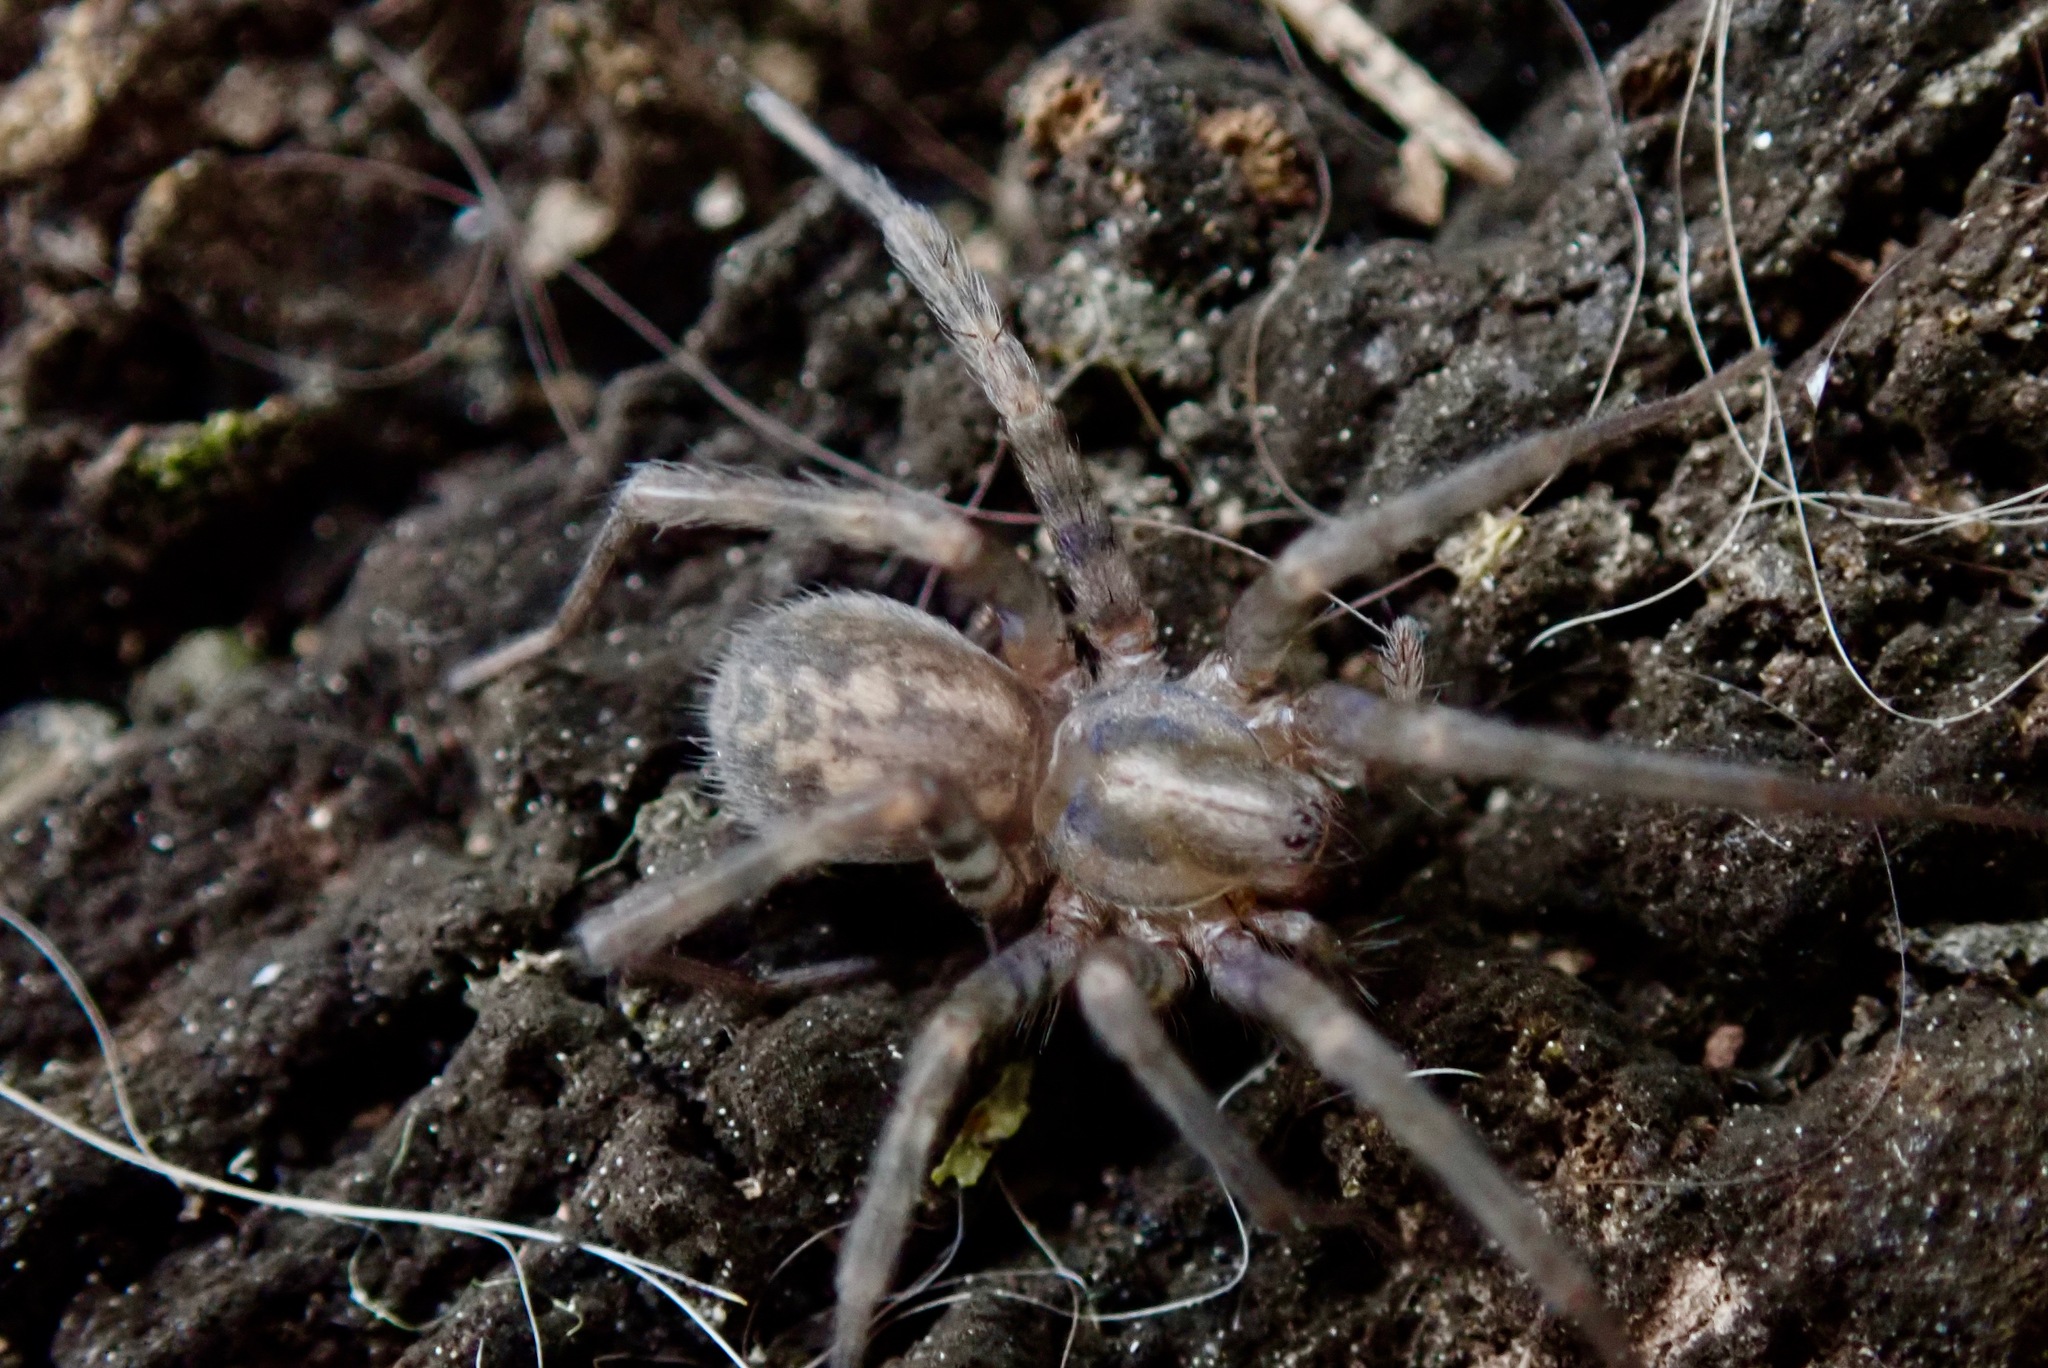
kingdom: Animalia
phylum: Arthropoda
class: Arachnida
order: Araneae
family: Agelenidae
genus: Tegenaria
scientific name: Tegenaria domestica
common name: Barn funnel weaver
